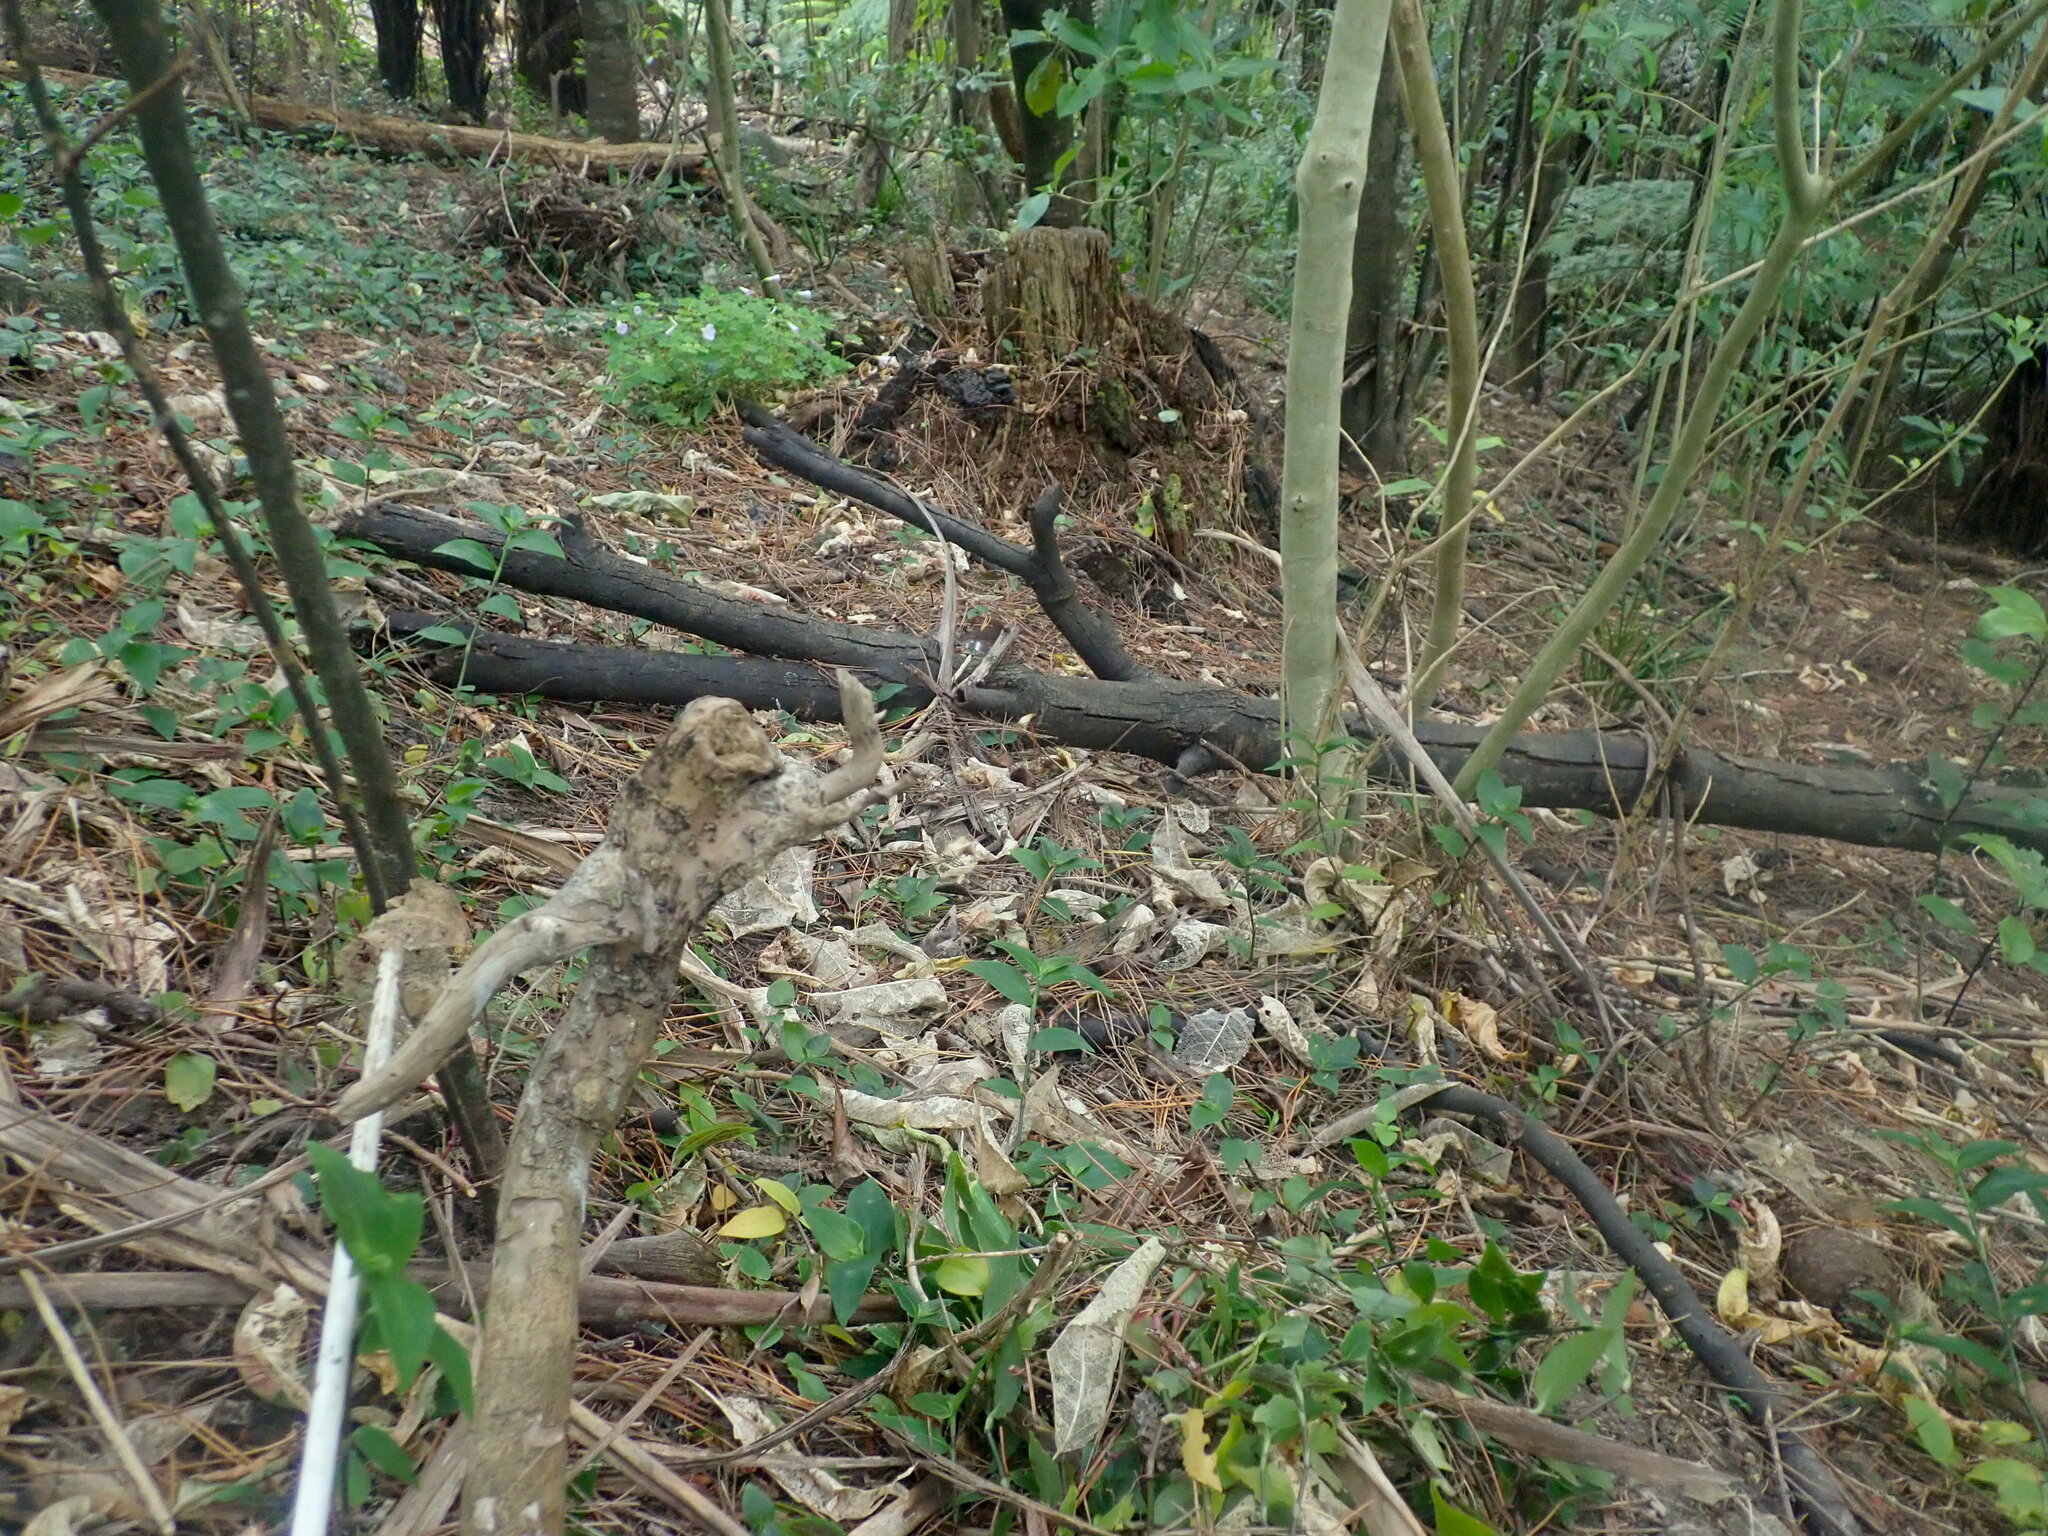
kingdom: Plantae
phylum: Tracheophyta
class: Liliopsida
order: Commelinales
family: Commelinaceae
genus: Tradescantia
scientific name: Tradescantia fluminensis
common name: Wandering-jew
